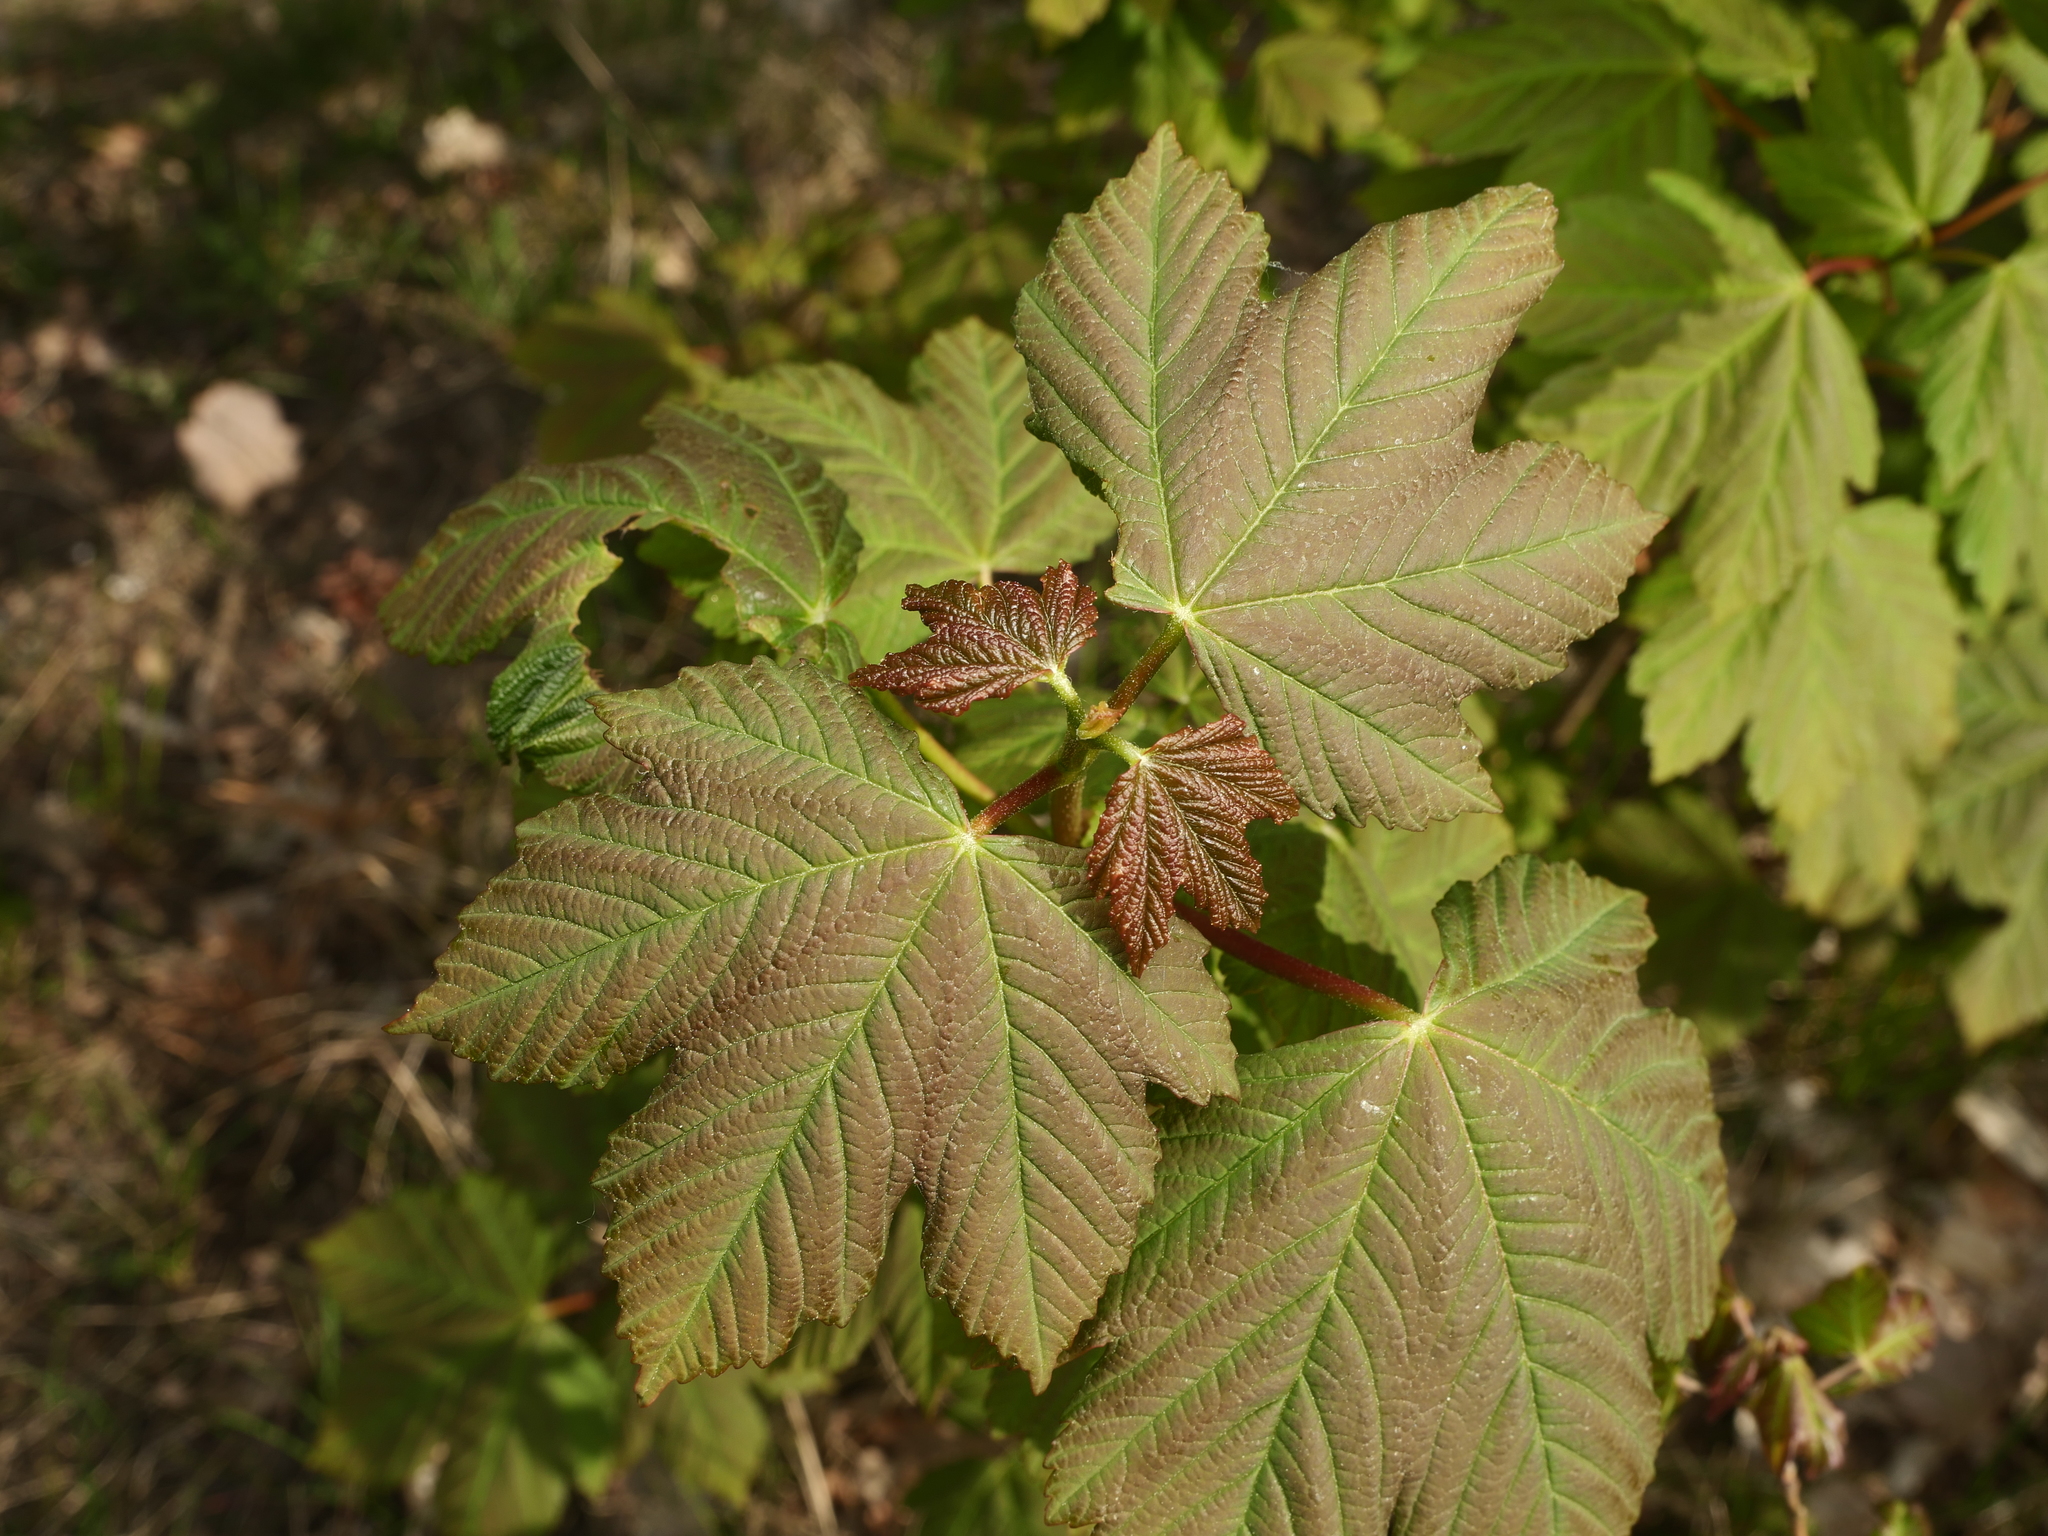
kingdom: Plantae
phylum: Tracheophyta
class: Magnoliopsida
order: Sapindales
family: Sapindaceae
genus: Acer
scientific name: Acer pseudoplatanus
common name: Sycamore
